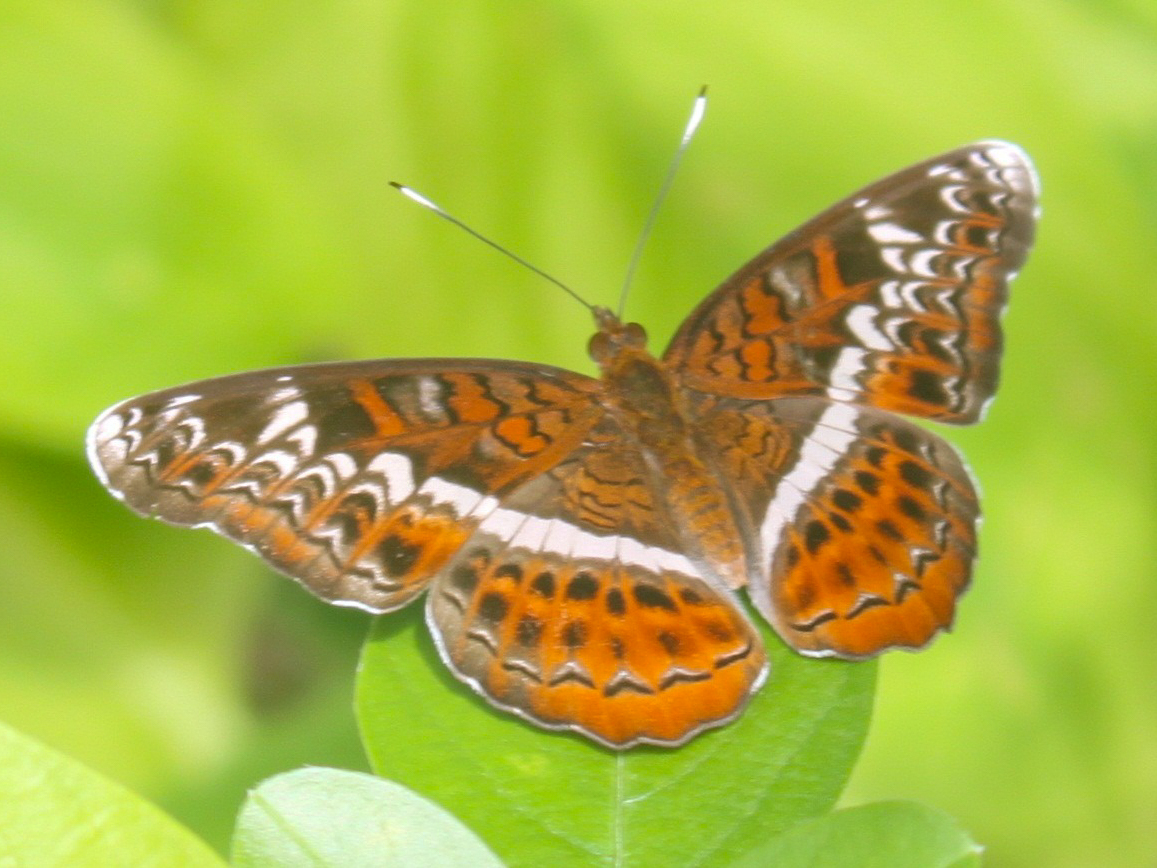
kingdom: Animalia
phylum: Arthropoda
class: Insecta
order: Lepidoptera
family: Nymphalidae
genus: Lebadea
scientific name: Lebadea martha
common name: Knight
